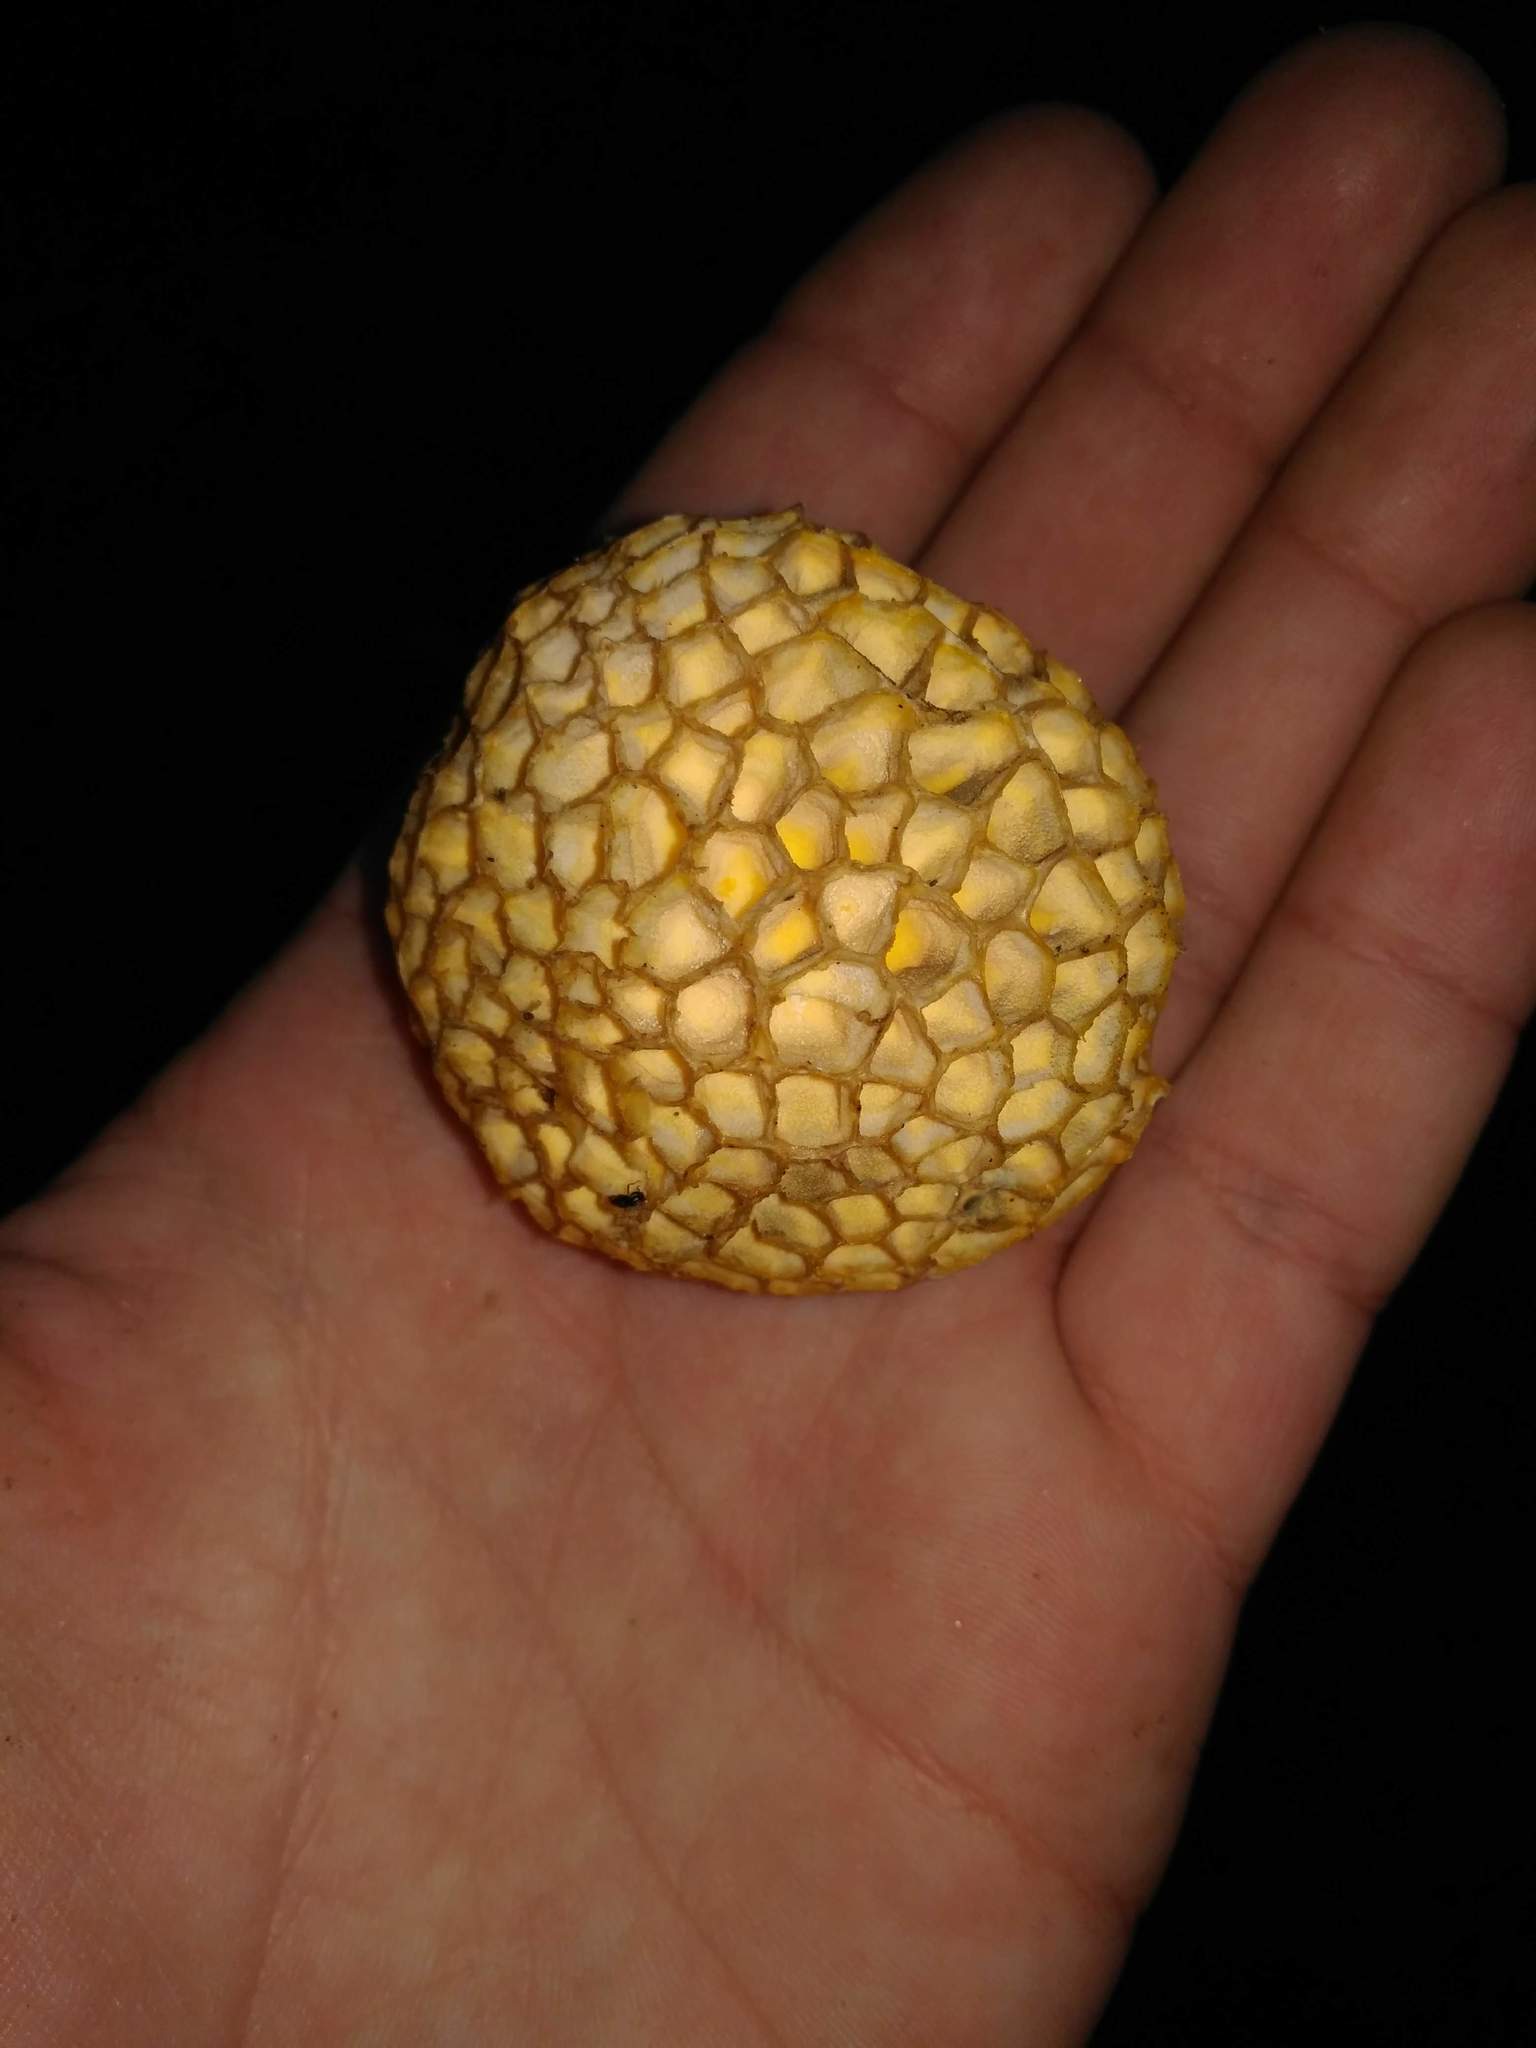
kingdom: Fungi
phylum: Ascomycota
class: Leotiomycetes
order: Cyttariales
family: Cyttariaceae
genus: Cyttaria
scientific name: Cyttaria espinosae
